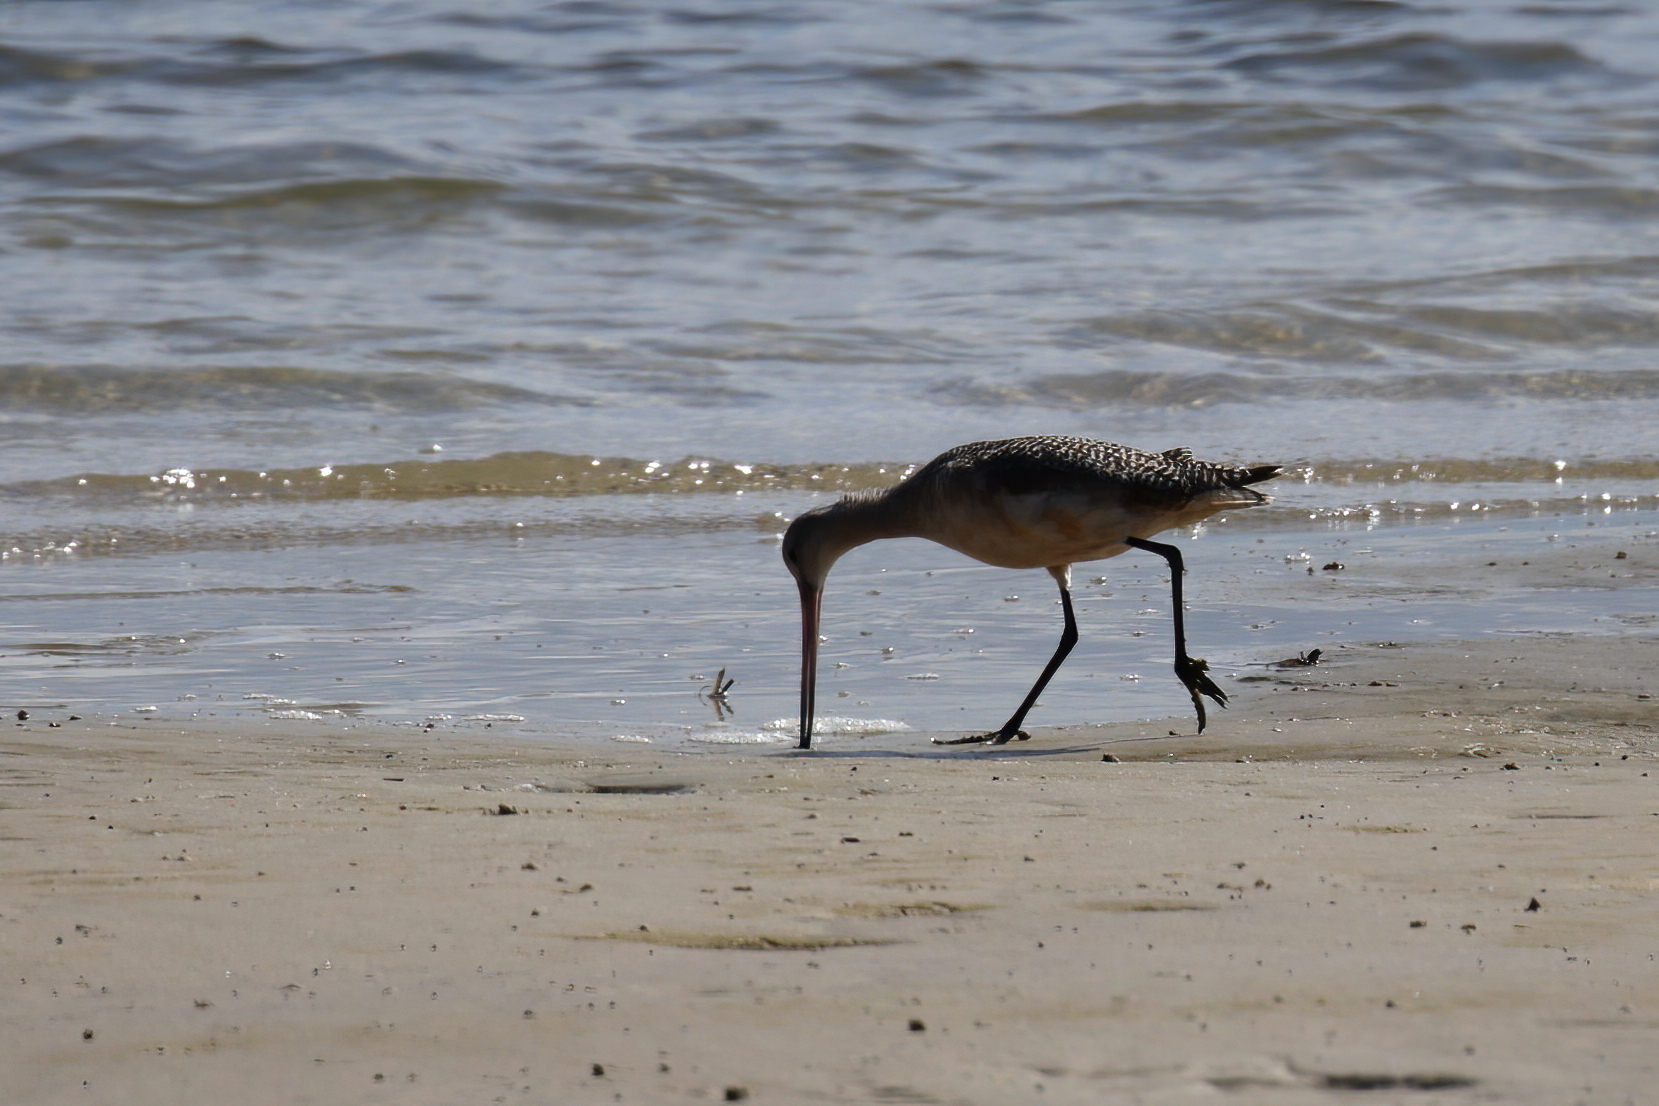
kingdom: Animalia
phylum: Chordata
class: Aves
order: Charadriiformes
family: Scolopacidae
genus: Limosa
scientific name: Limosa fedoa
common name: Marbled godwit
